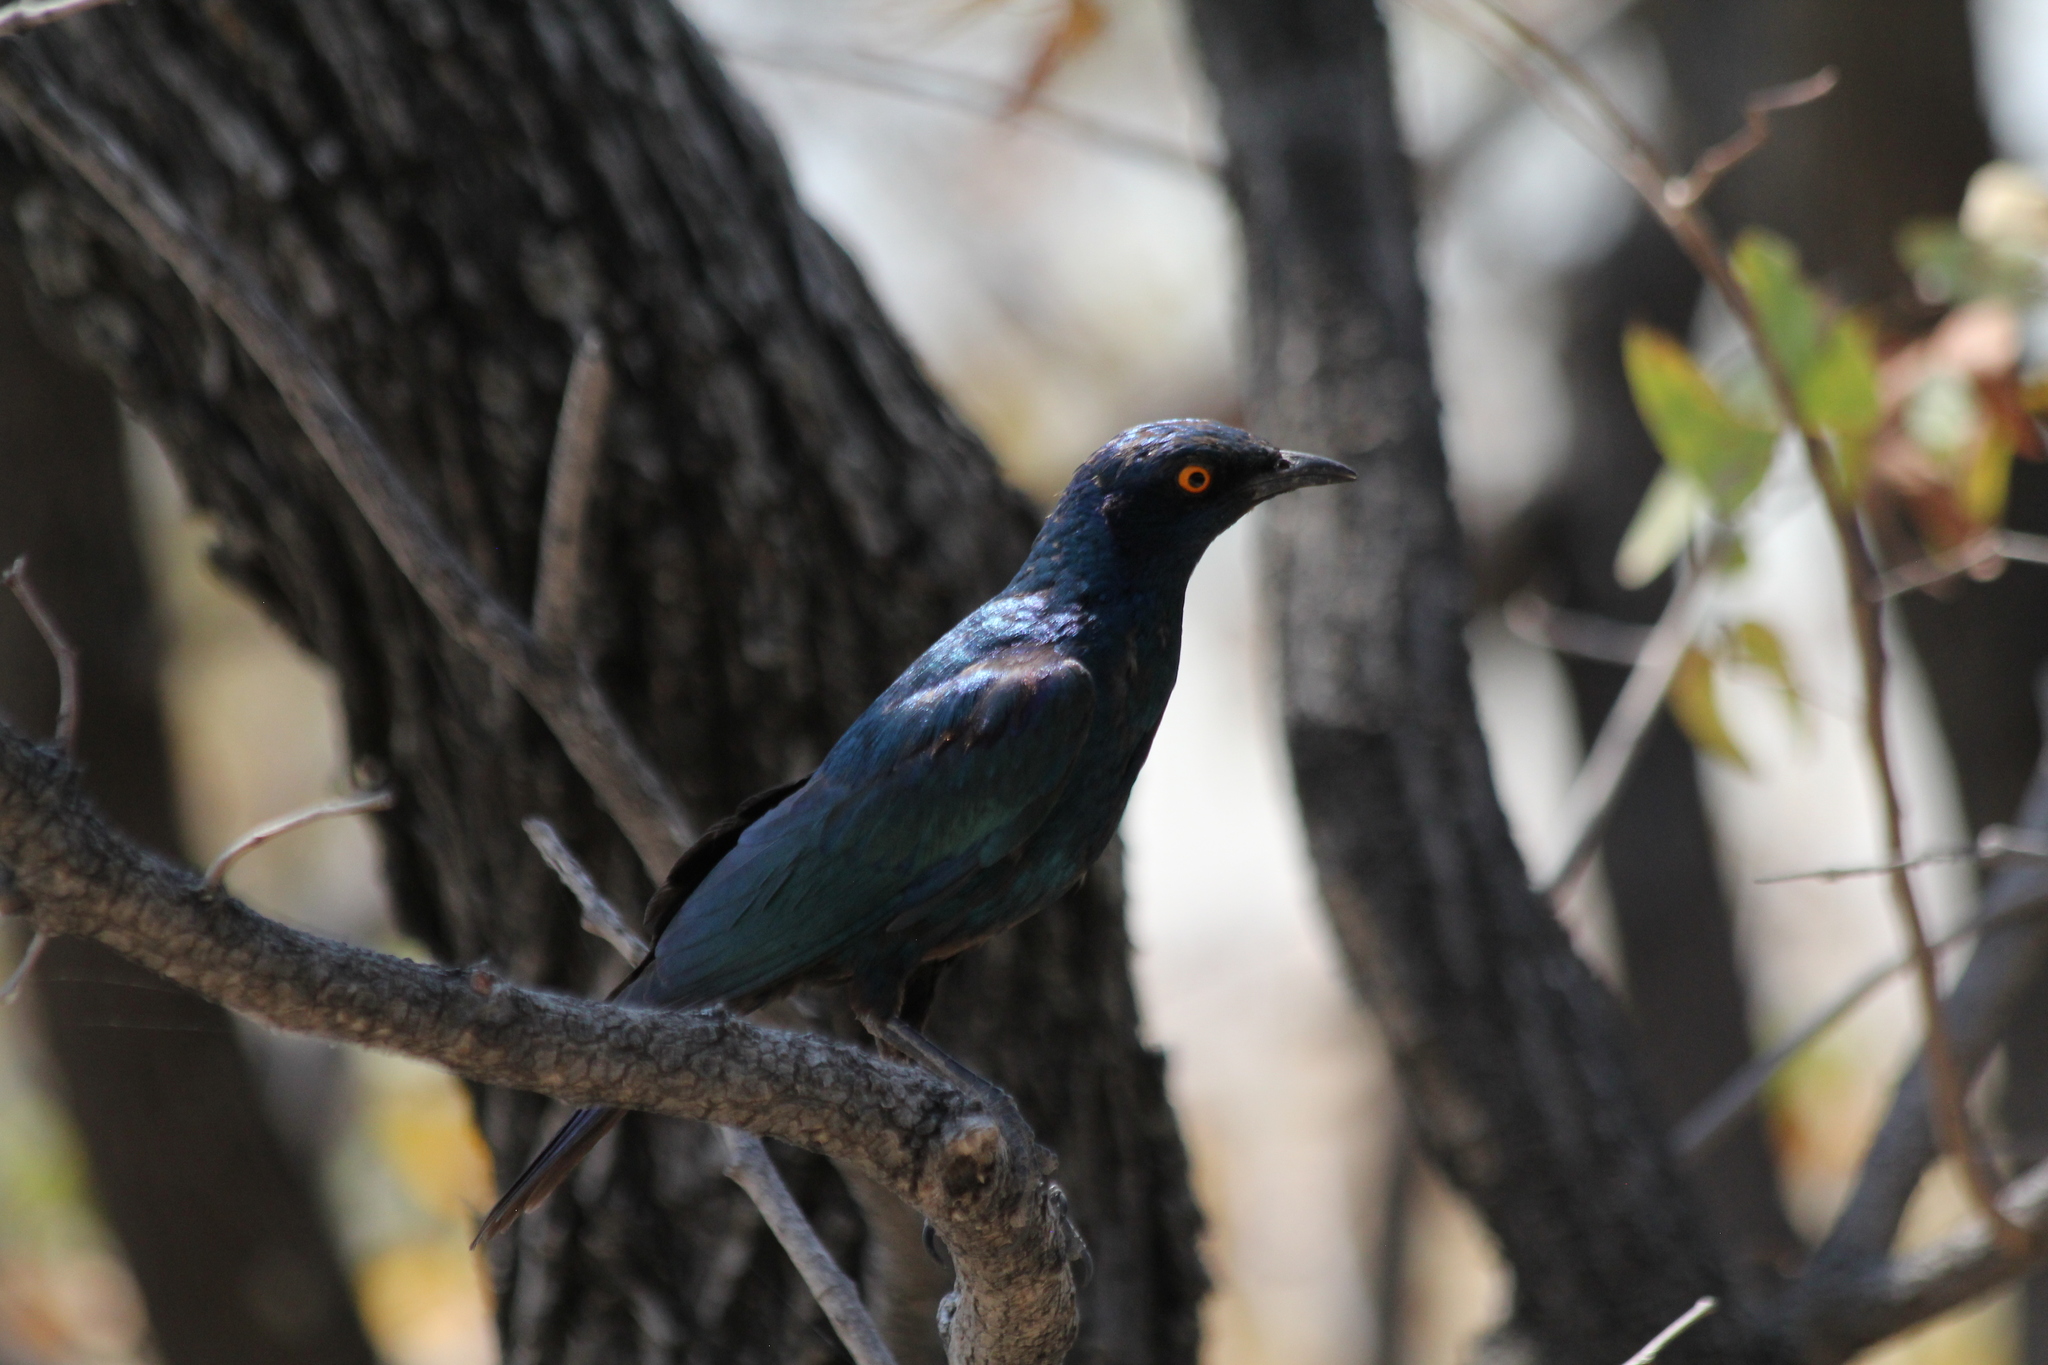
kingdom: Animalia
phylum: Chordata
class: Aves
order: Passeriformes
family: Sturnidae
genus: Lamprotornis
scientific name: Lamprotornis nitens
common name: Cape starling
